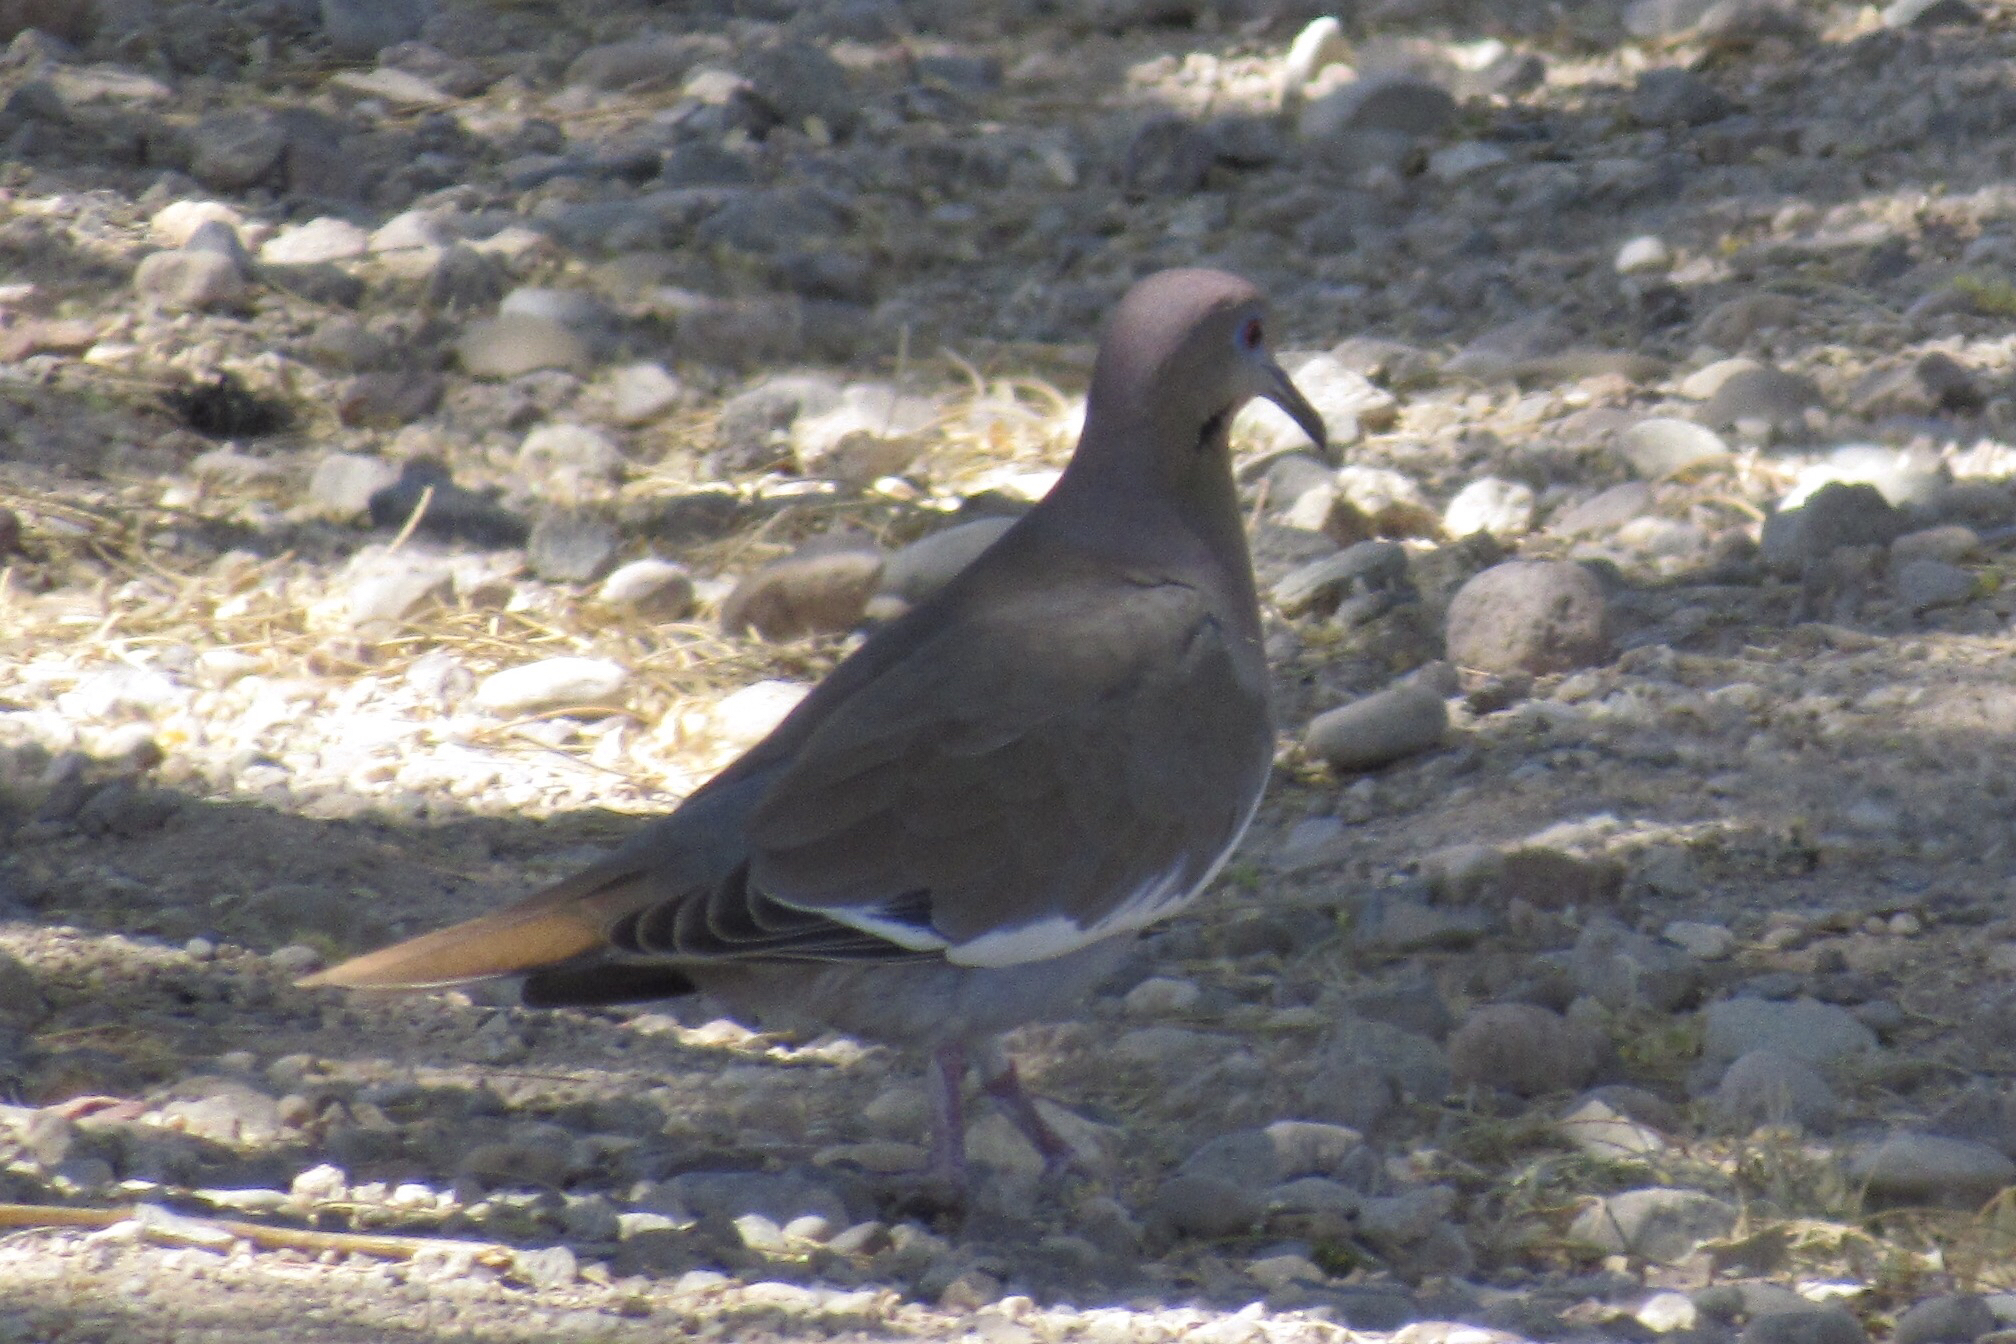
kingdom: Animalia
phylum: Chordata
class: Aves
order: Columbiformes
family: Columbidae
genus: Zenaida
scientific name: Zenaida asiatica
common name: White-winged dove
